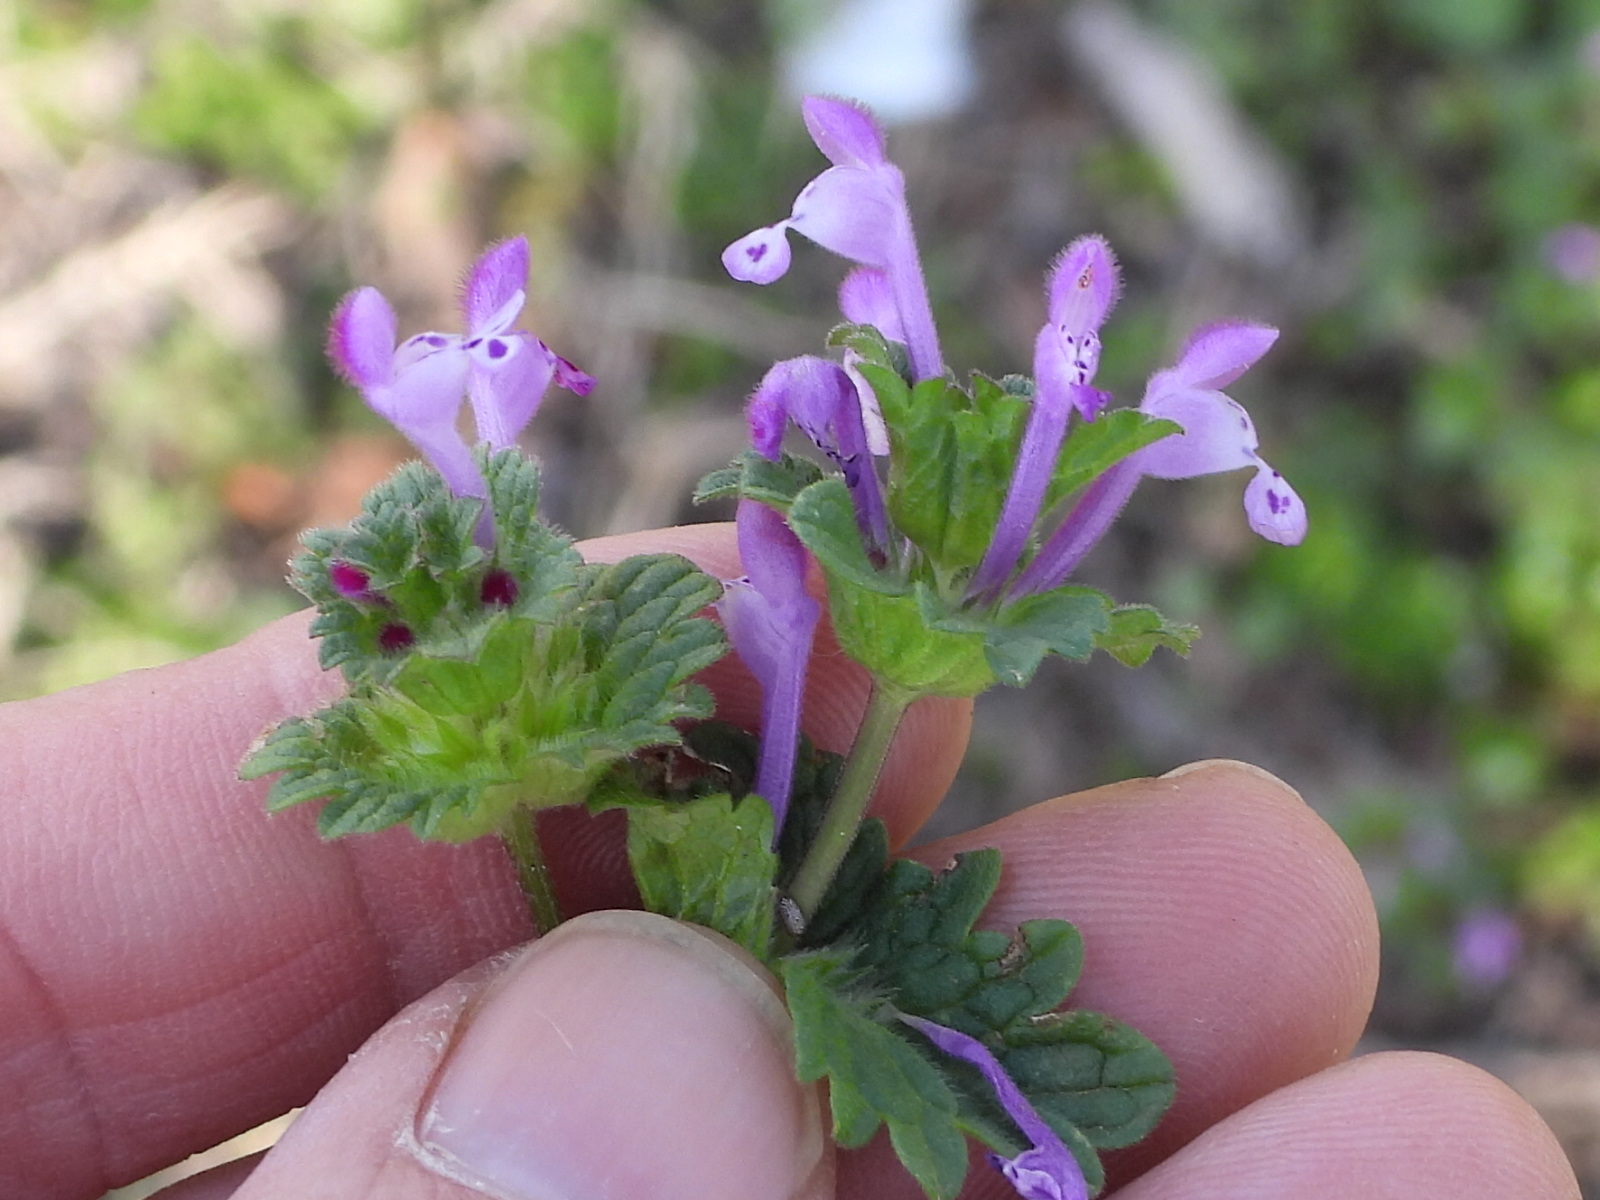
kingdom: Plantae
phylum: Tracheophyta
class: Magnoliopsida
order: Lamiales
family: Lamiaceae
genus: Lamium
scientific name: Lamium amplexicaule
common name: Henbit dead-nettle
